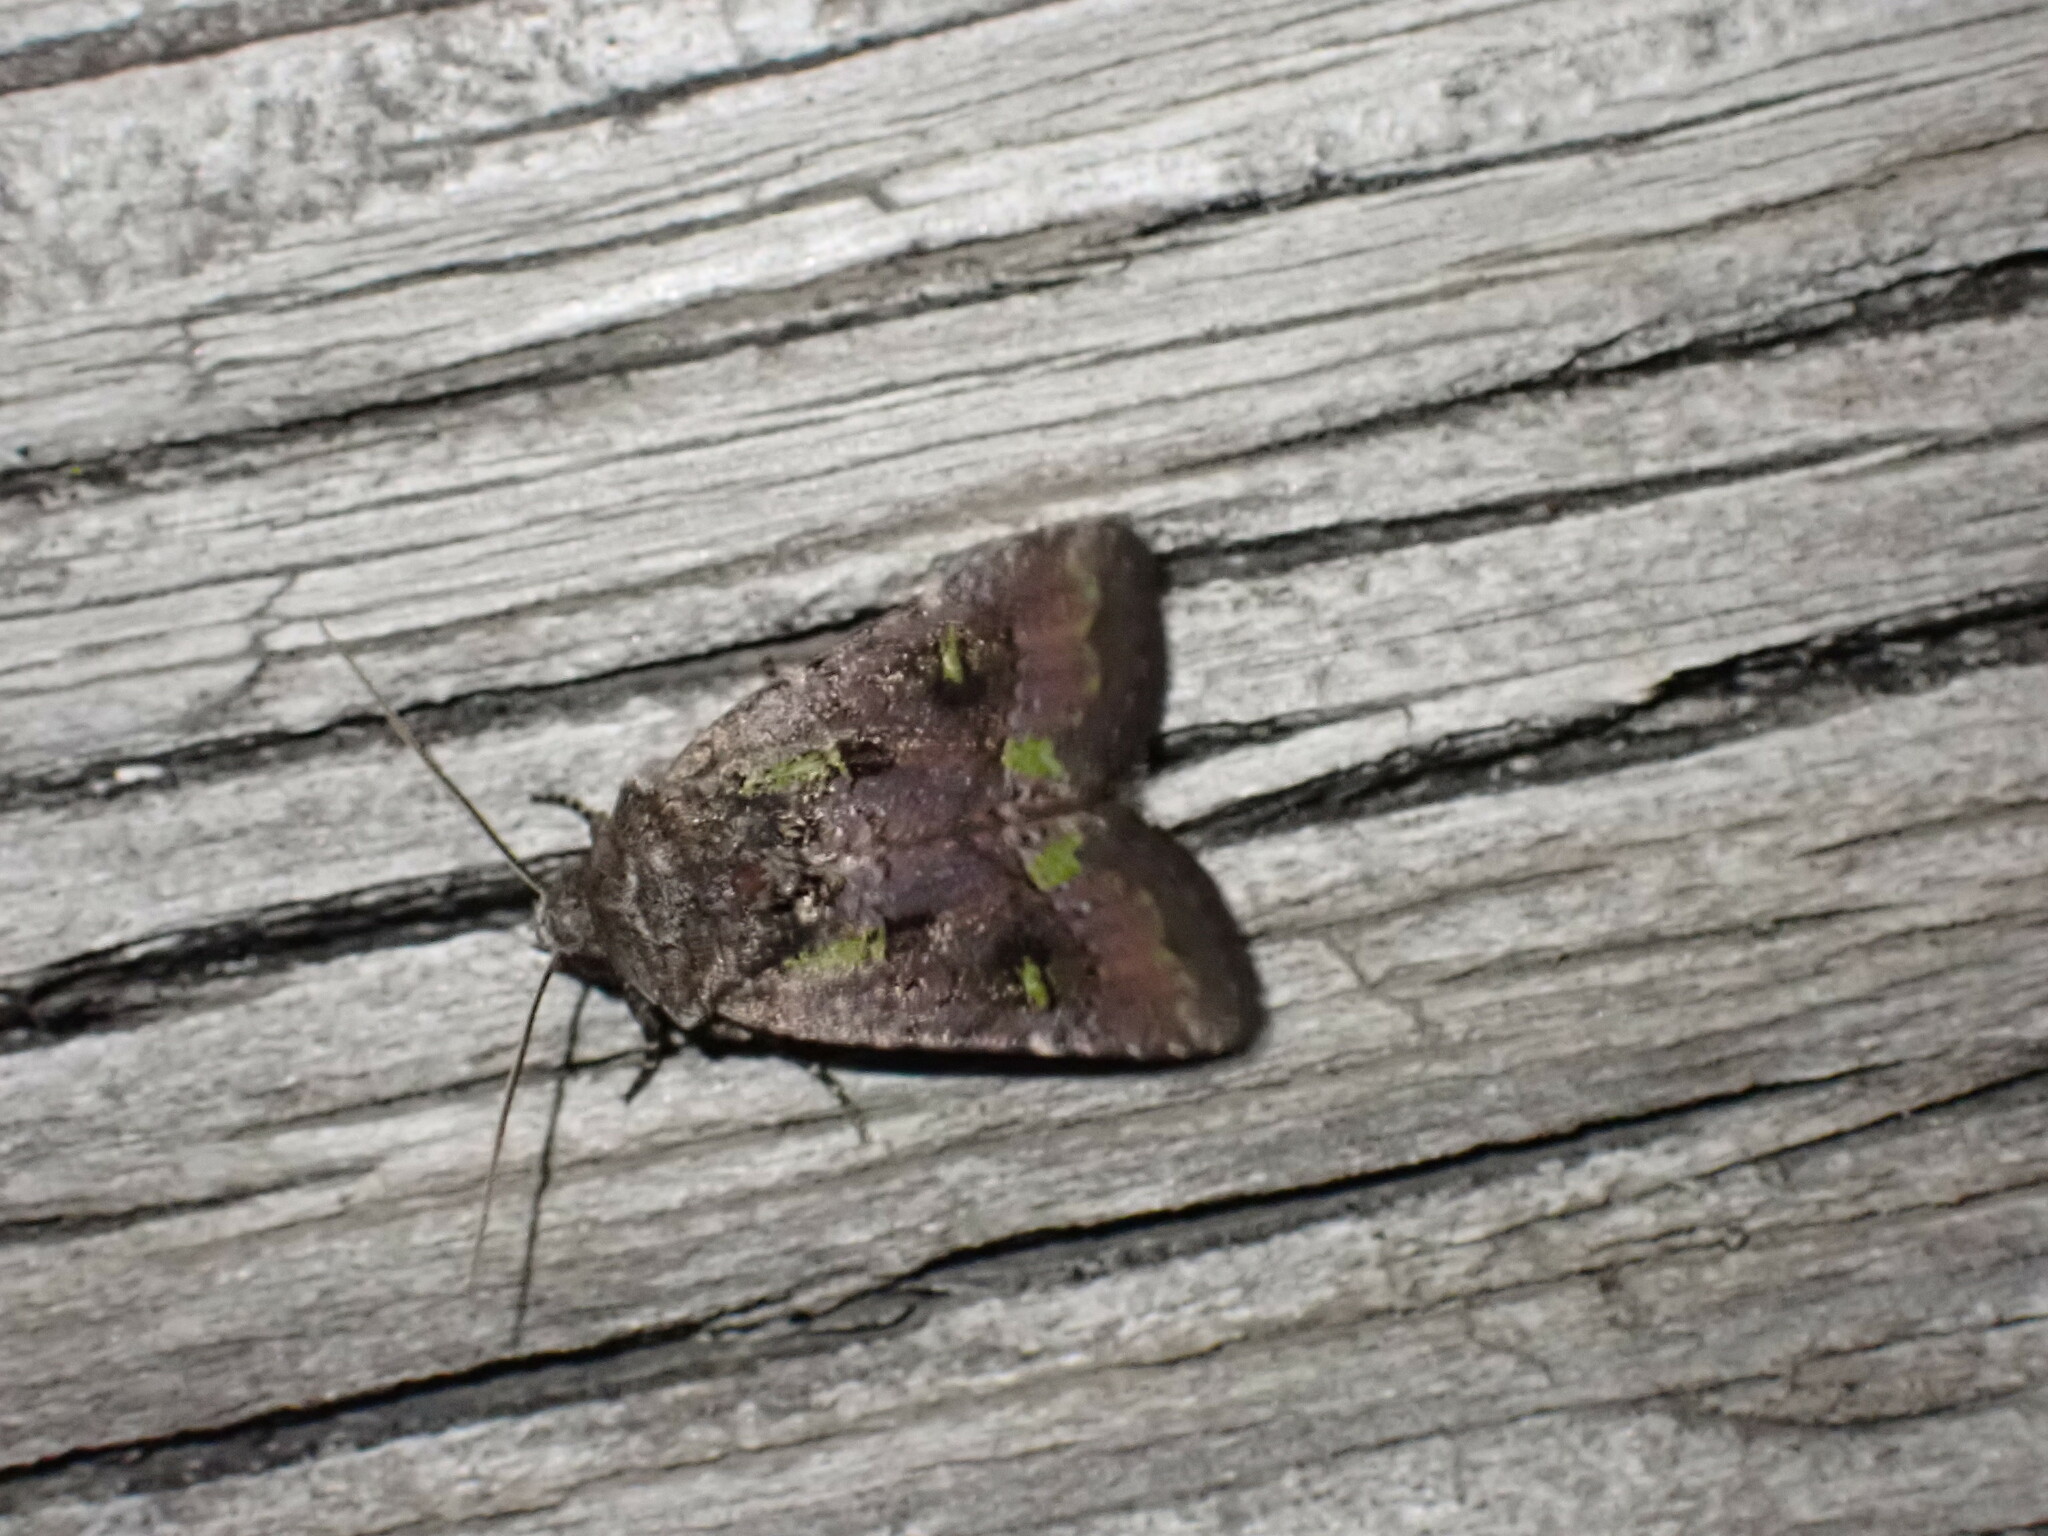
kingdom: Animalia
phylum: Arthropoda
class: Insecta
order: Lepidoptera
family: Noctuidae
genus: Lacinipolia
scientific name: Lacinipolia renigera
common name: Kidney-spotted minor
